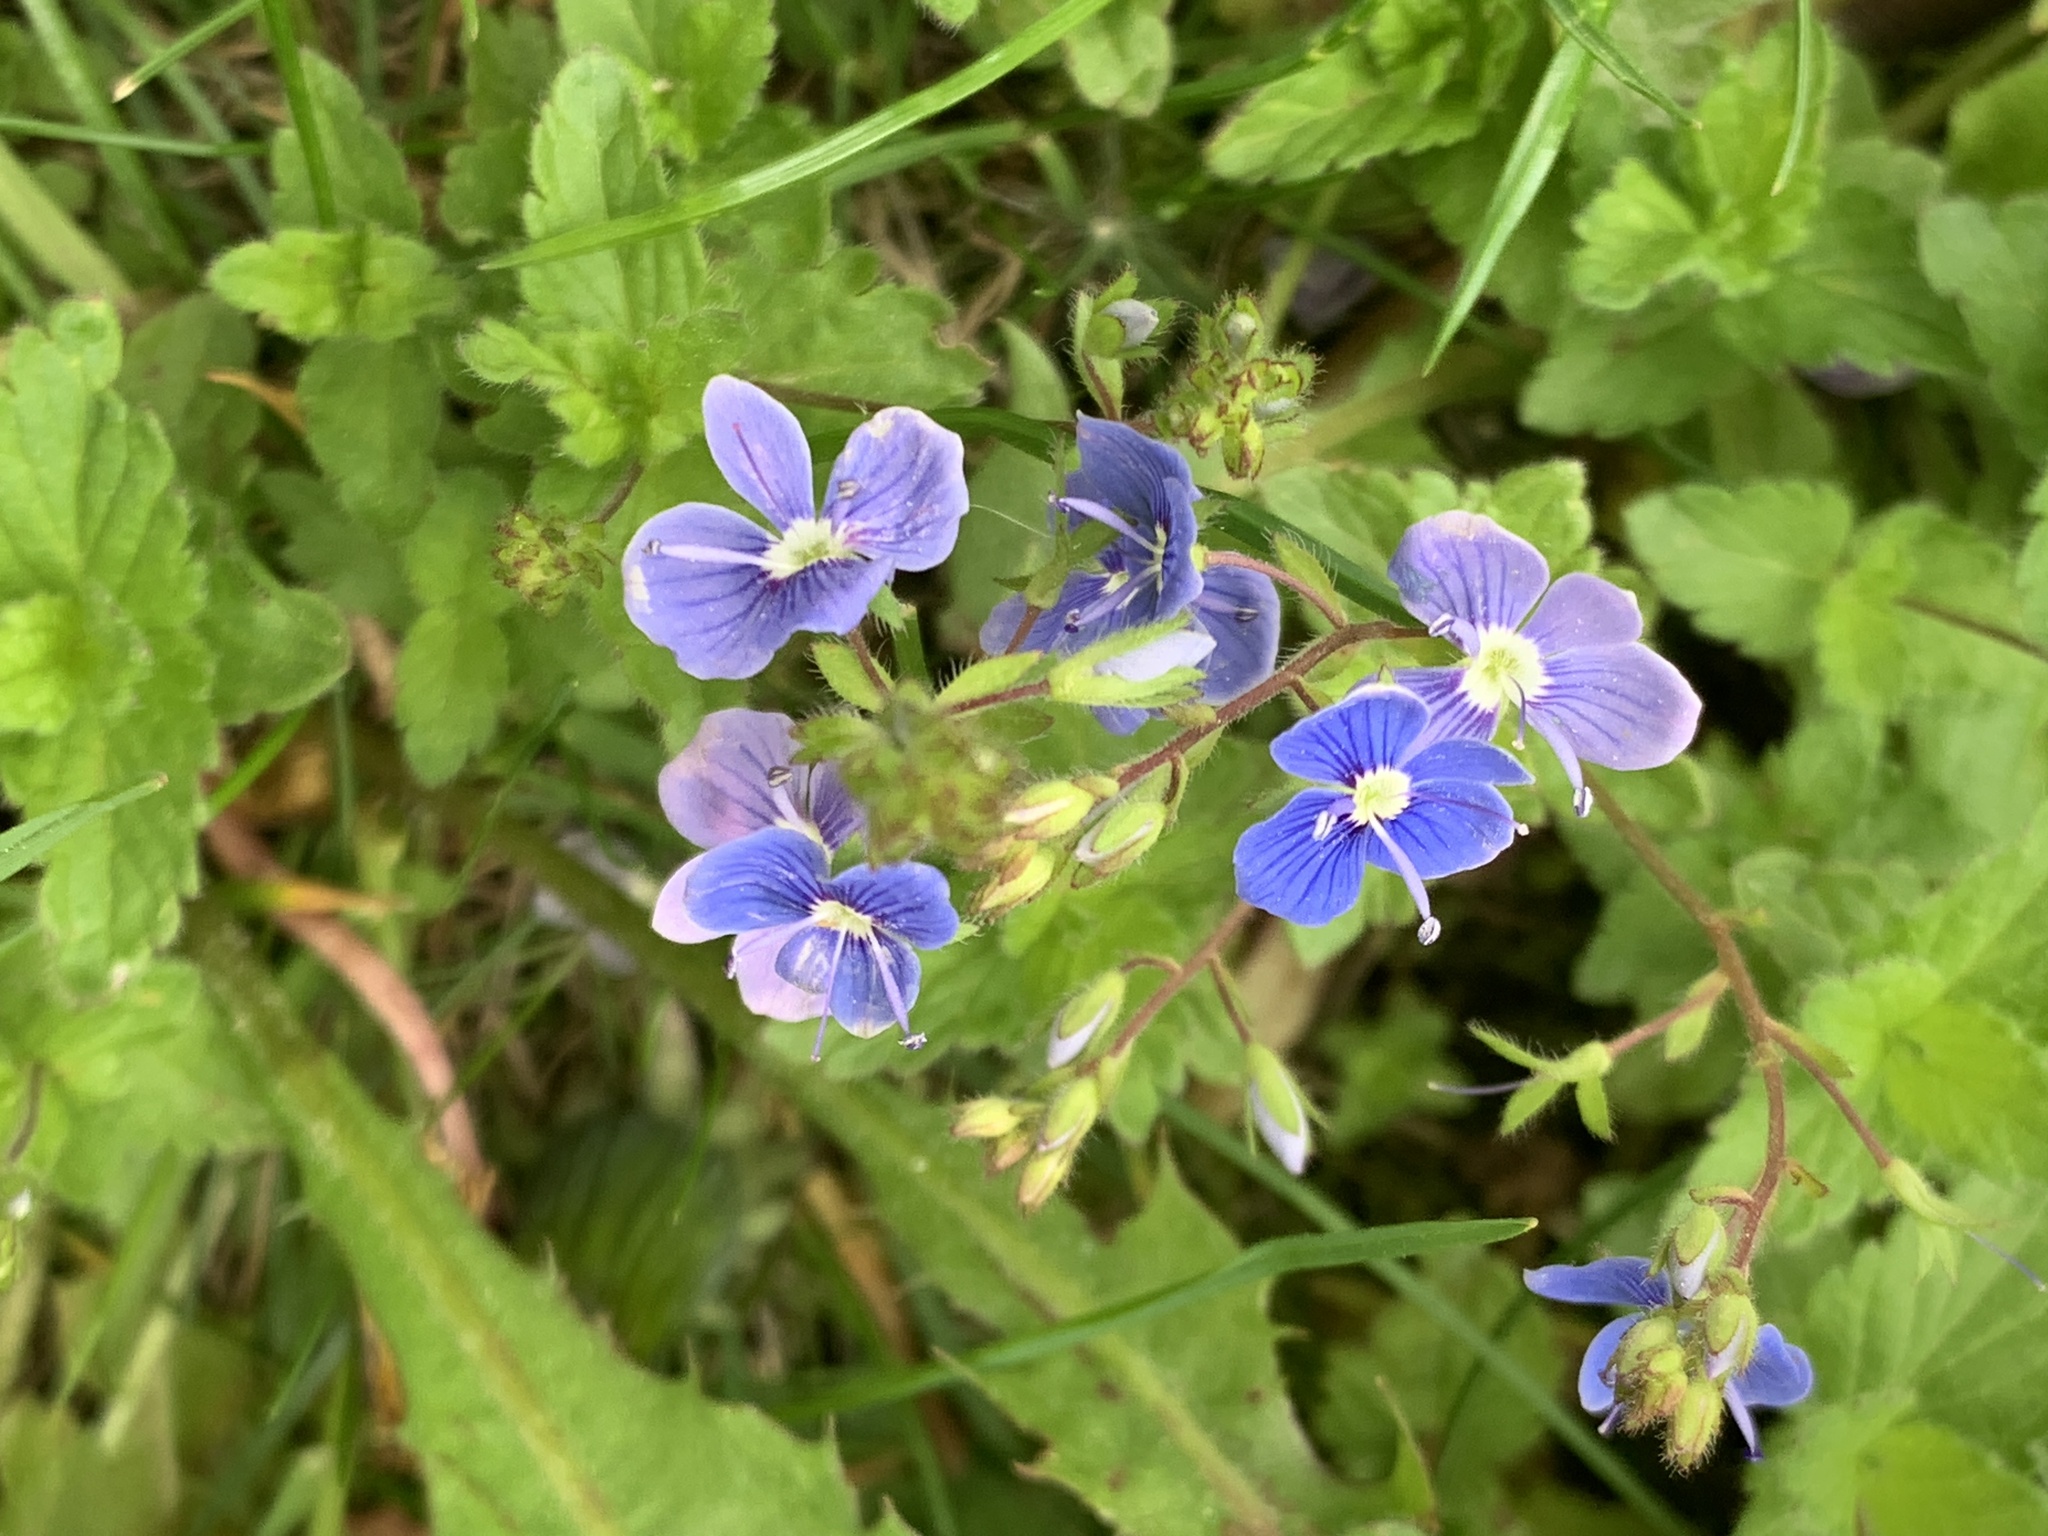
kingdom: Plantae
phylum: Tracheophyta
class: Magnoliopsida
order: Lamiales
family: Plantaginaceae
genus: Veronica
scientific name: Veronica chamaedrys
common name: Germander speedwell
